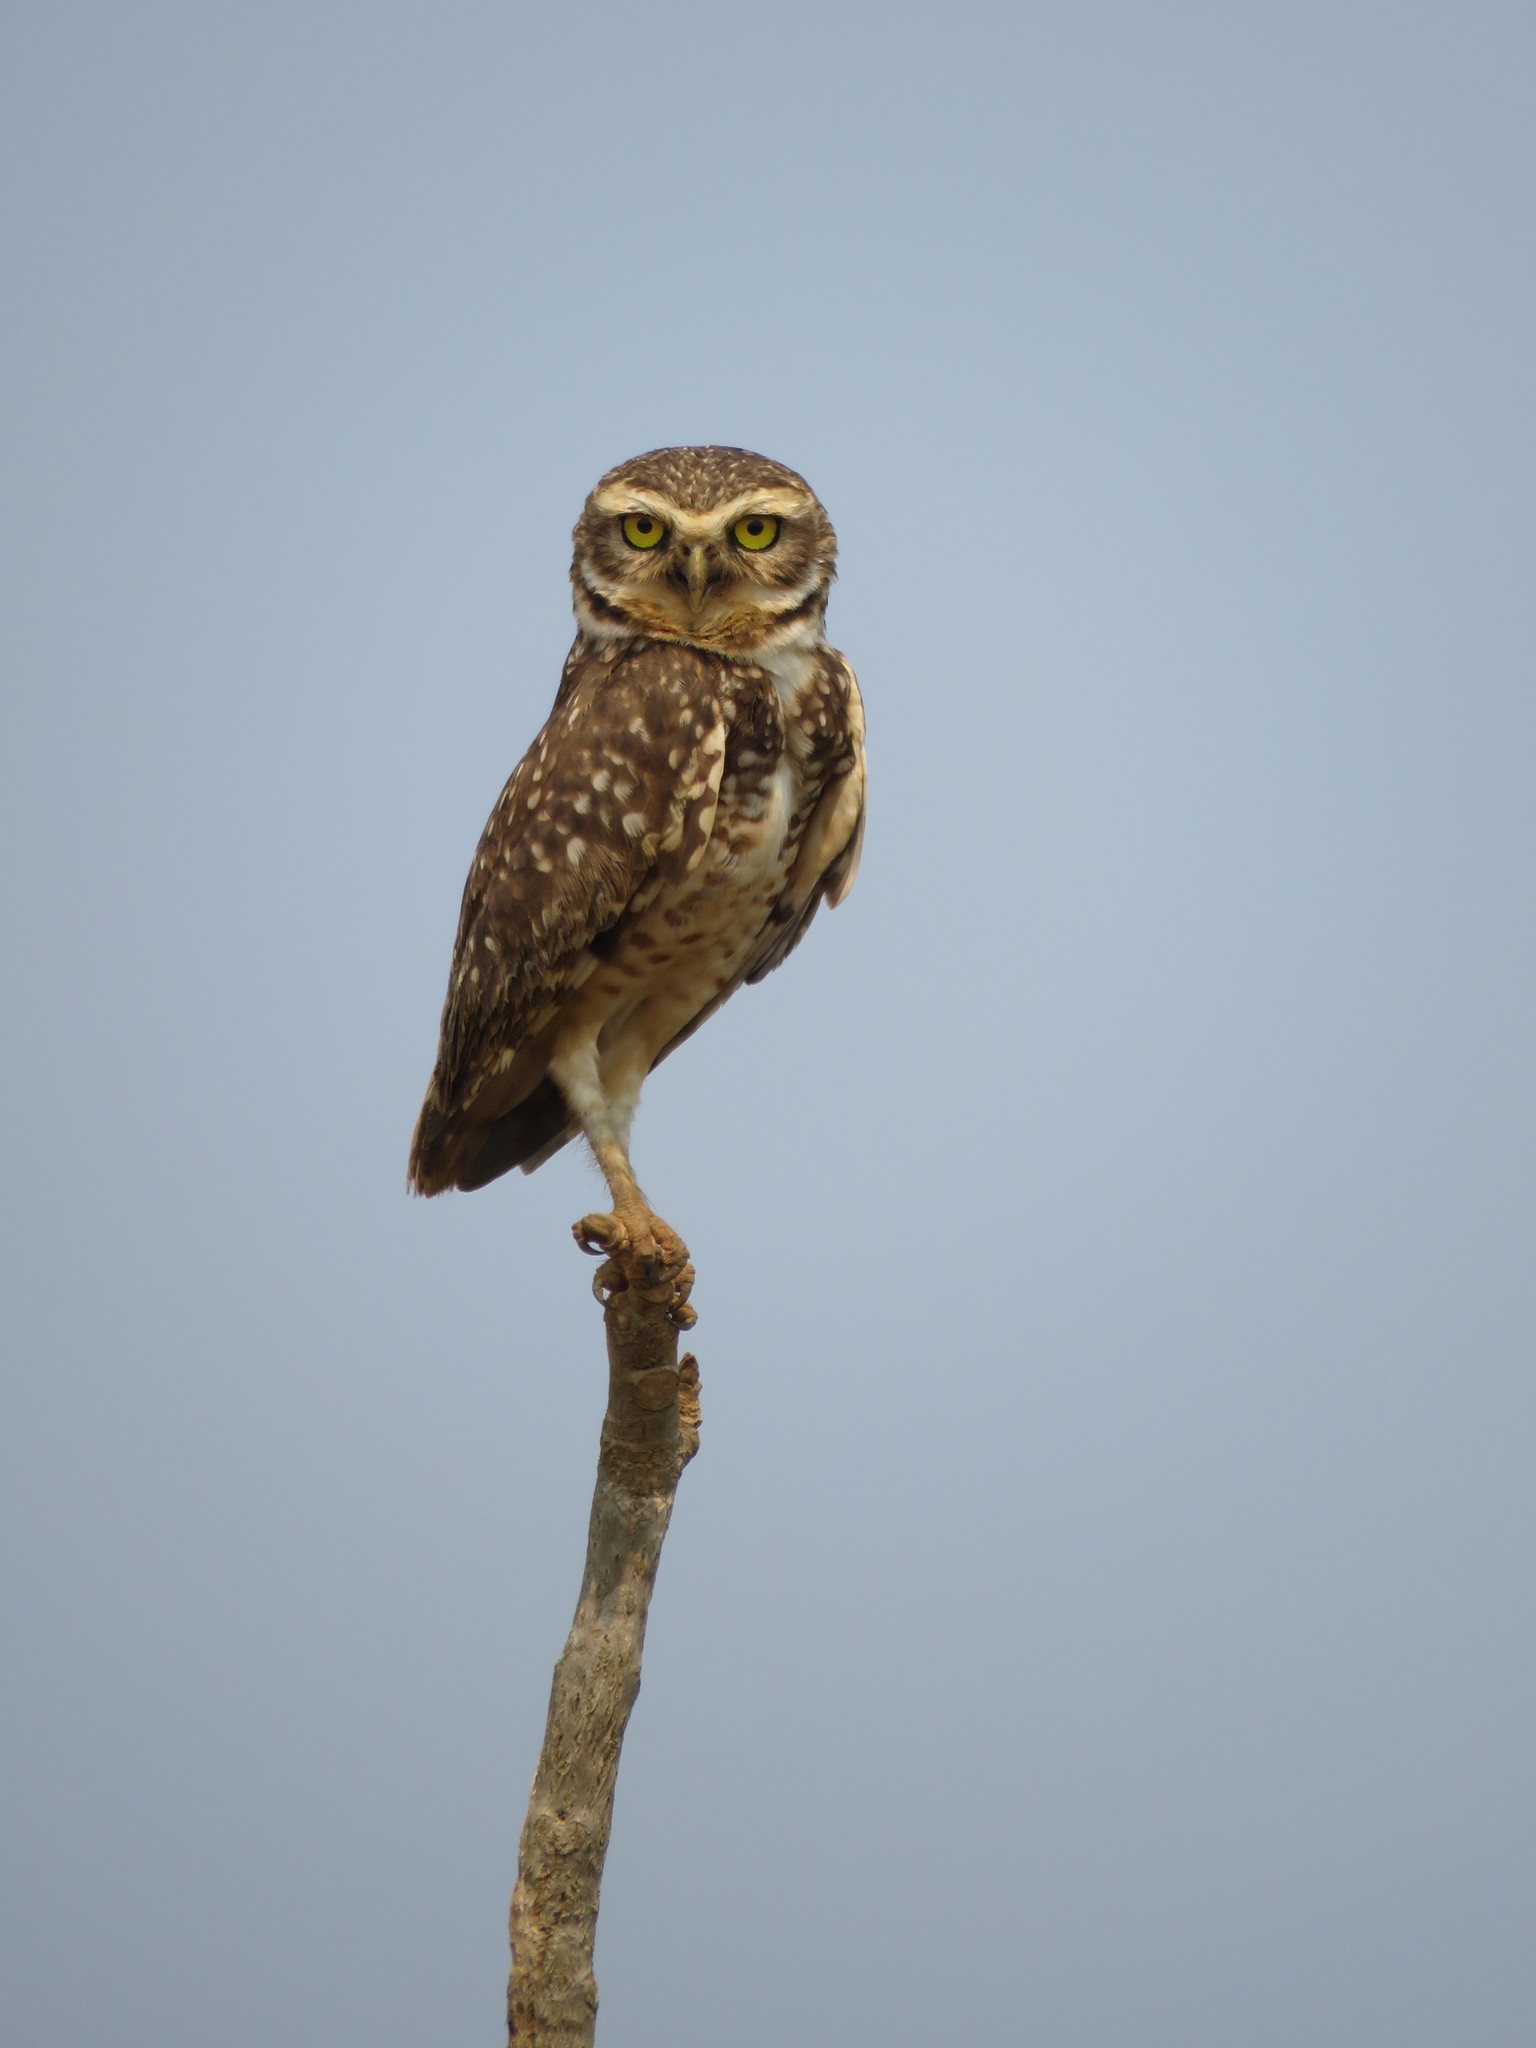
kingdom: Animalia
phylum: Chordata
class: Aves
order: Strigiformes
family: Strigidae
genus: Athene
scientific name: Athene cunicularia
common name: Burrowing owl
